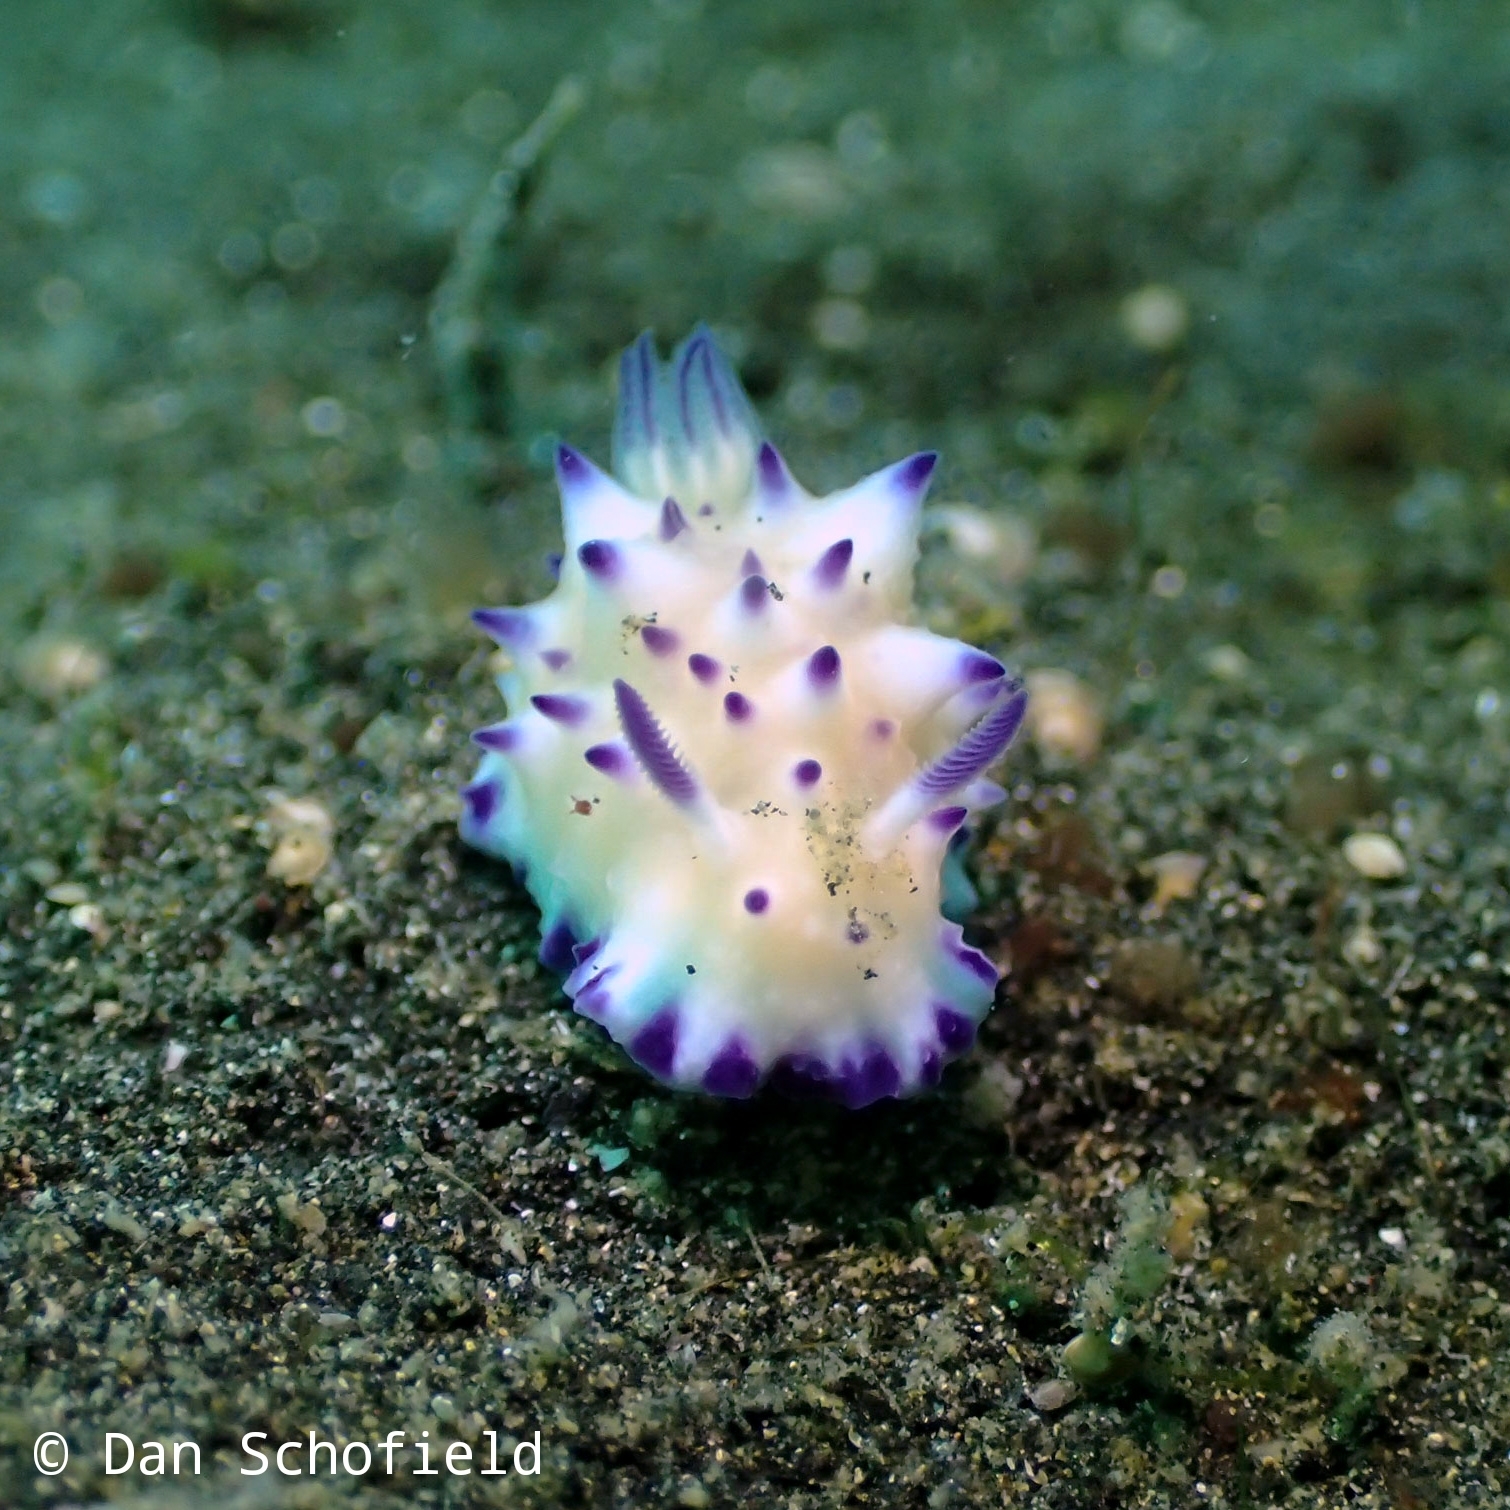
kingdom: Animalia
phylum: Mollusca
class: Gastropoda
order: Nudibranchia
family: Chromodorididae
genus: Mexichromis
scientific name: Mexichromis multituberculata
